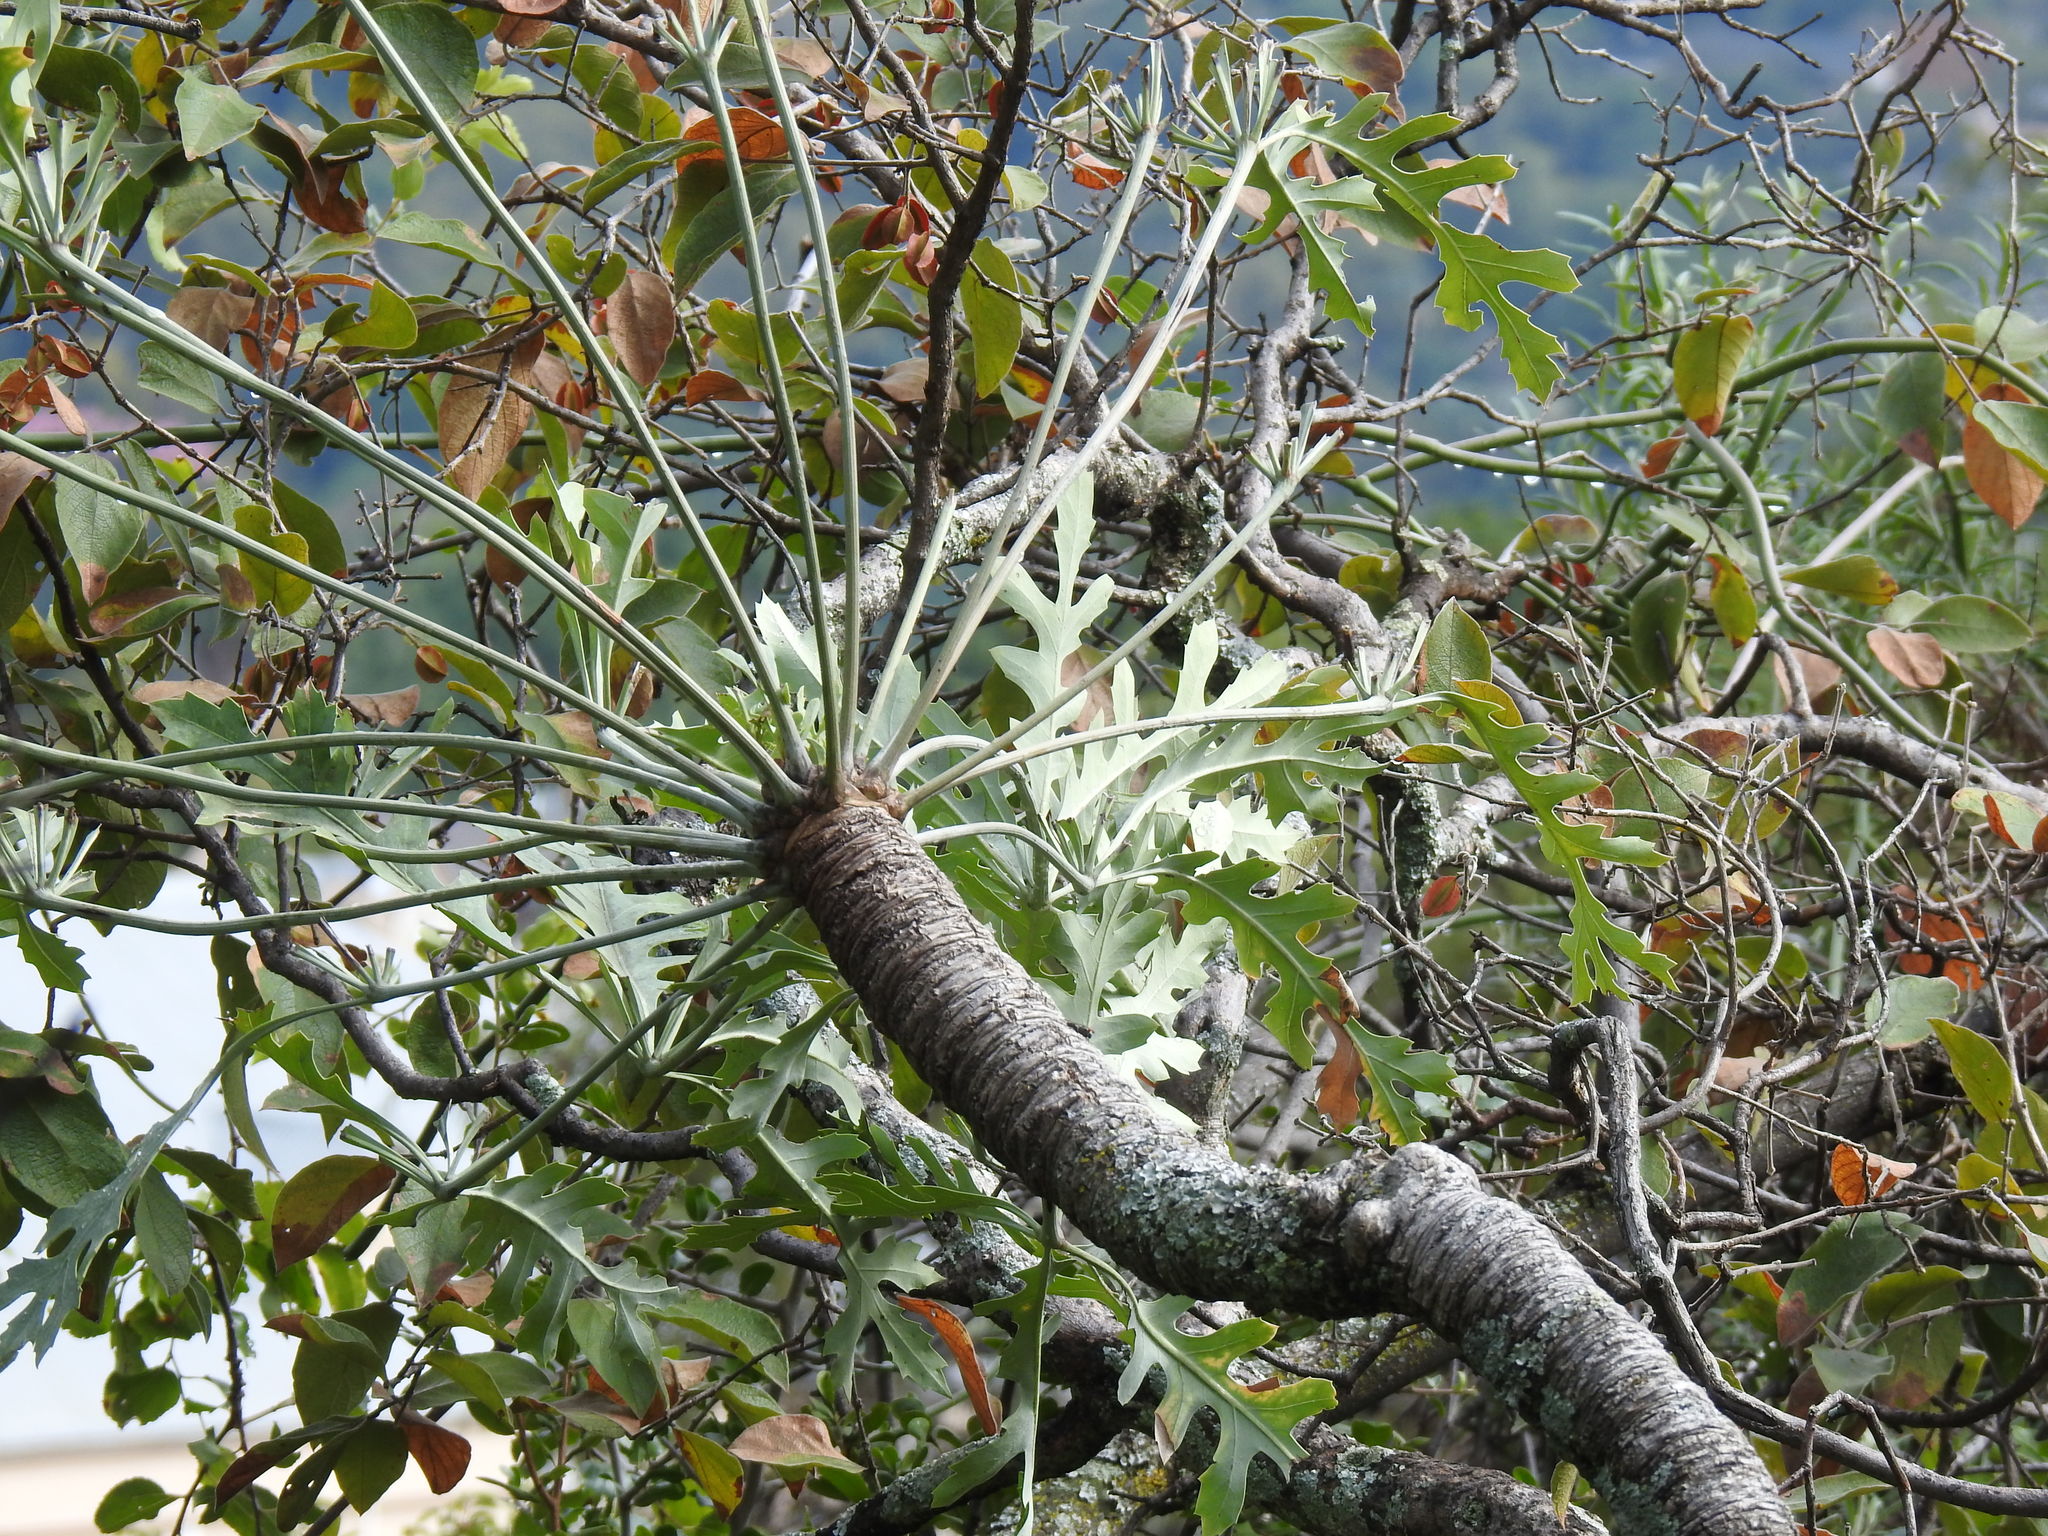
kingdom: Plantae
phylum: Tracheophyta
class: Magnoliopsida
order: Apiales
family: Araliaceae
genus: Cussonia
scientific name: Cussonia paniculata
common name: Cabbagetree
